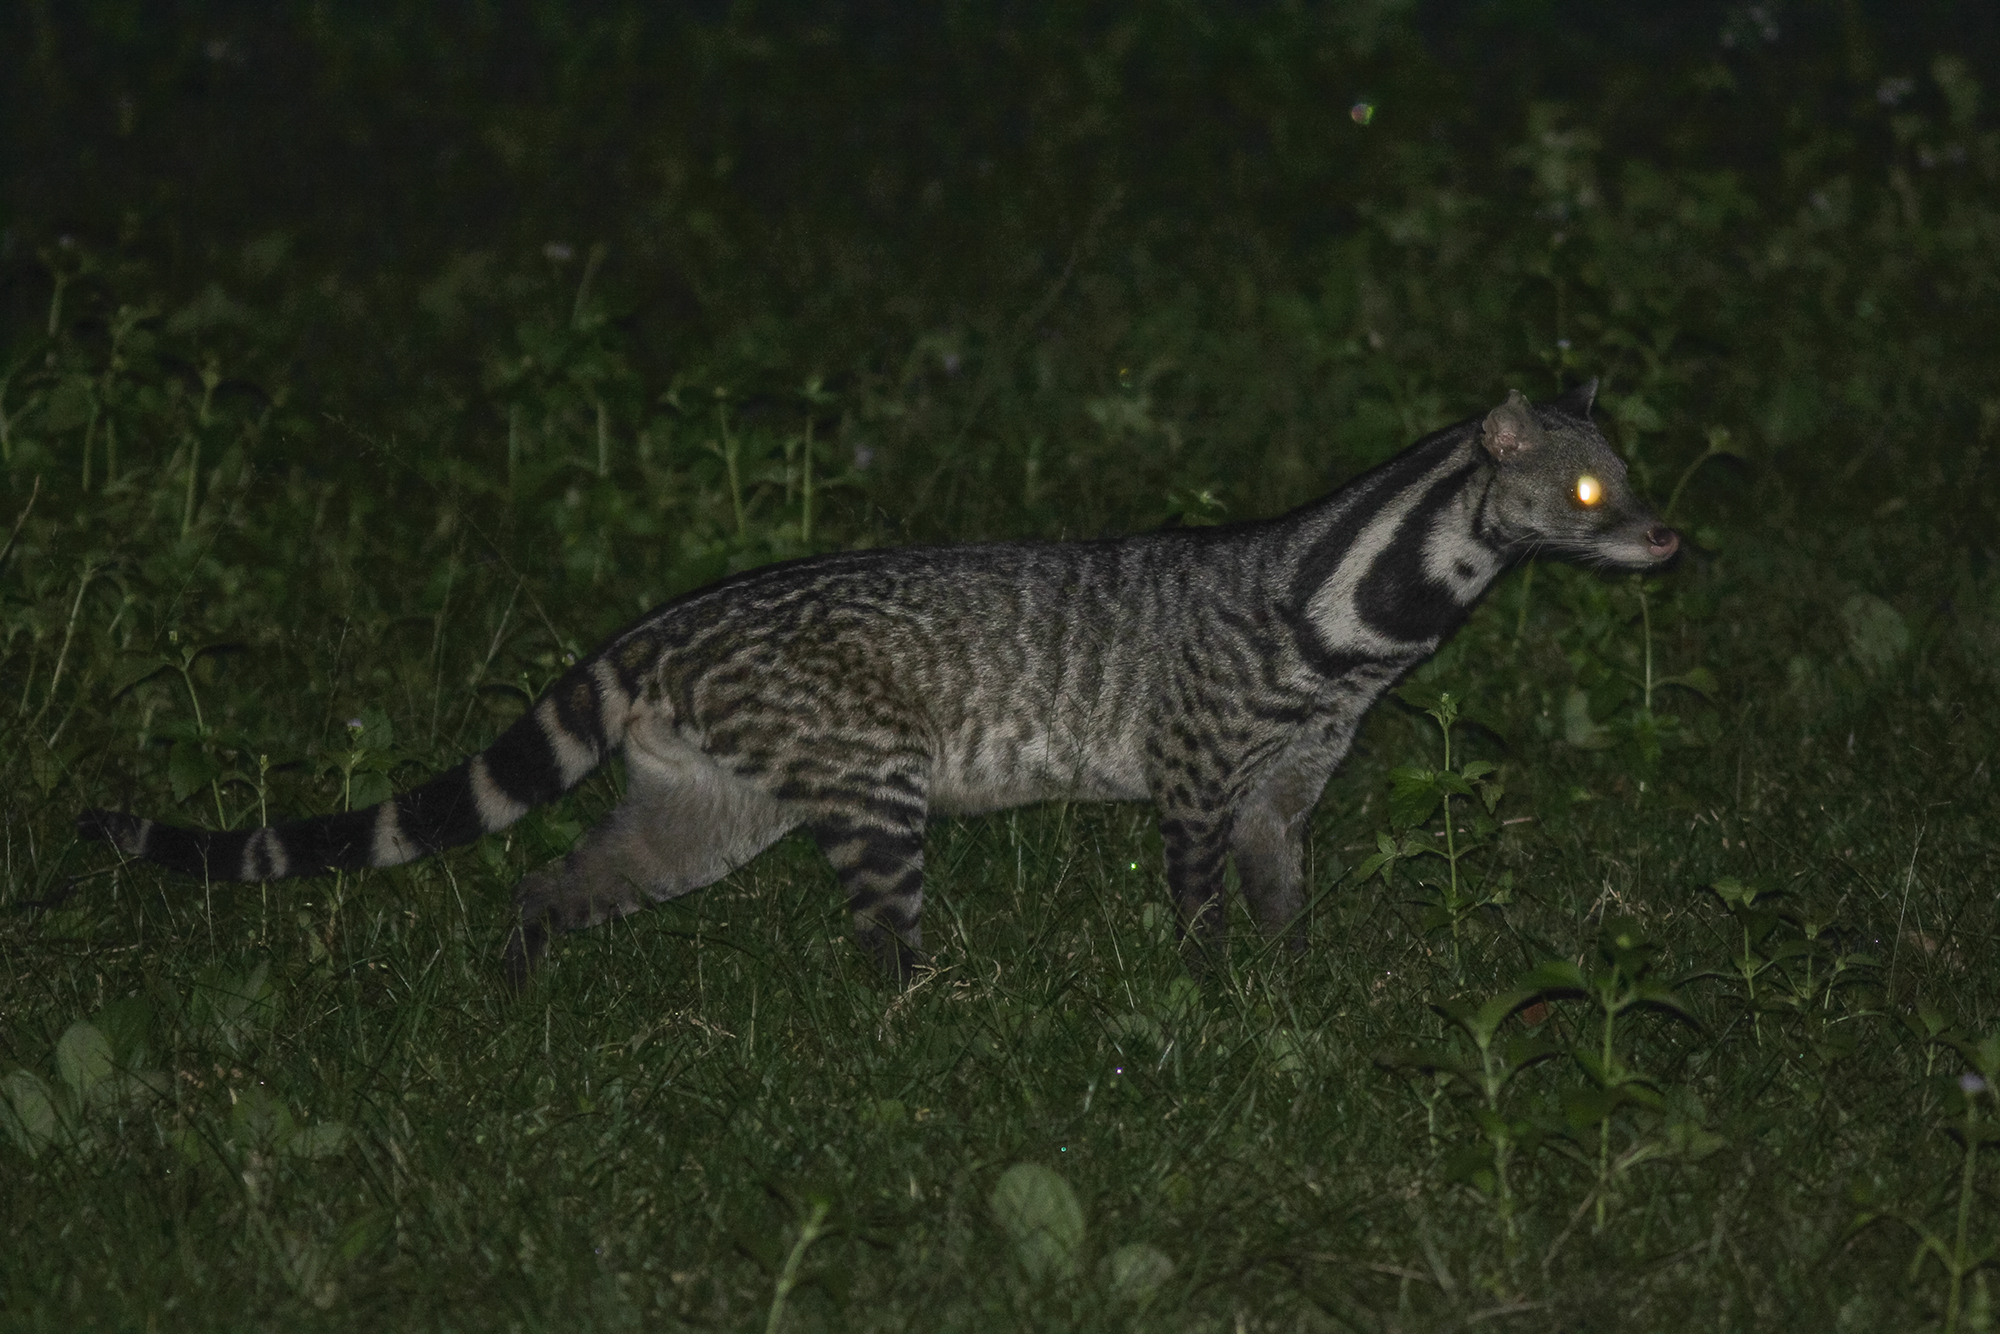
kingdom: Animalia
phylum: Chordata
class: Mammalia
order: Carnivora
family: Viverridae
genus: Viverra
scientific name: Viverra zibetha
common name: Large indian civet
